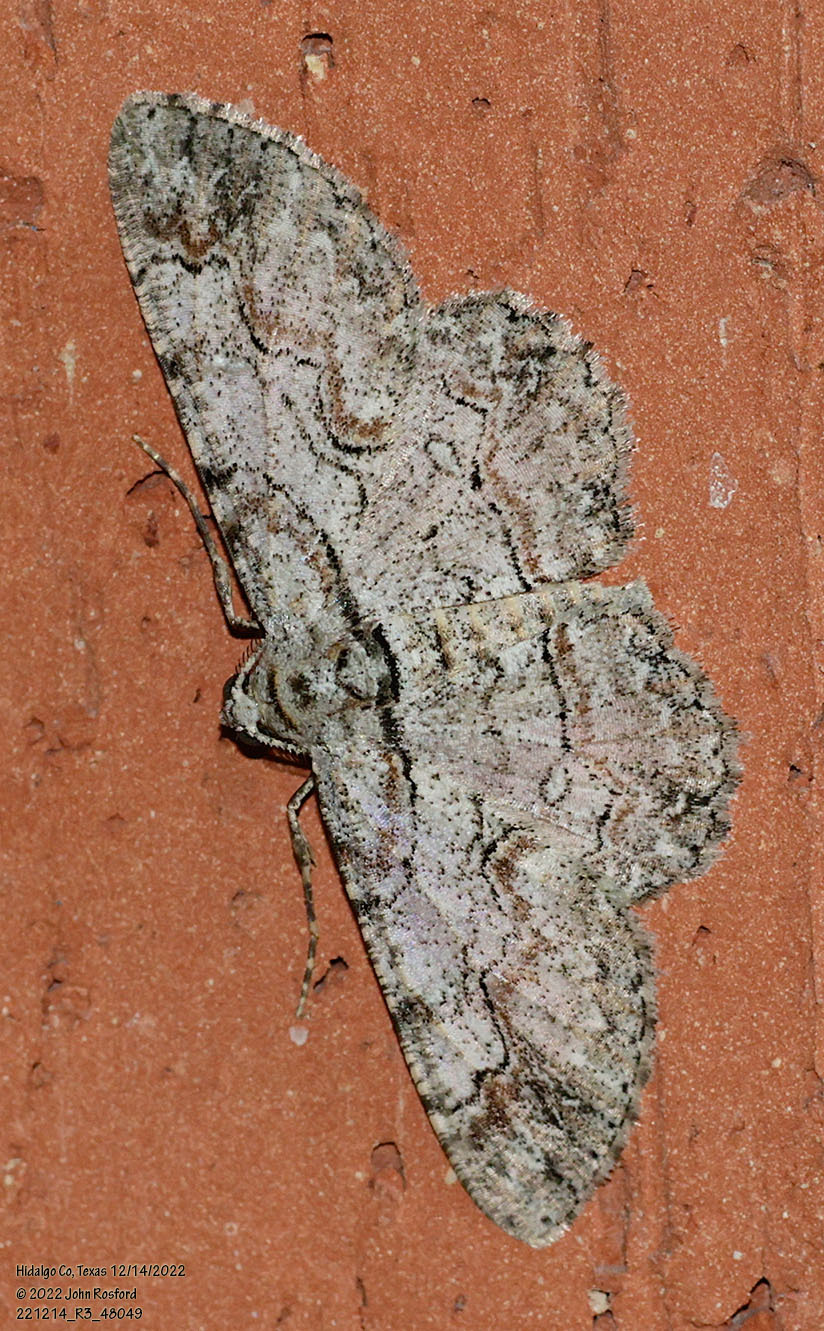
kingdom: Animalia
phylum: Arthropoda
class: Insecta
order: Lepidoptera
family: Geometridae
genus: Iridopsis
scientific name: Iridopsis defectaria
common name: Brown-shaded gray
